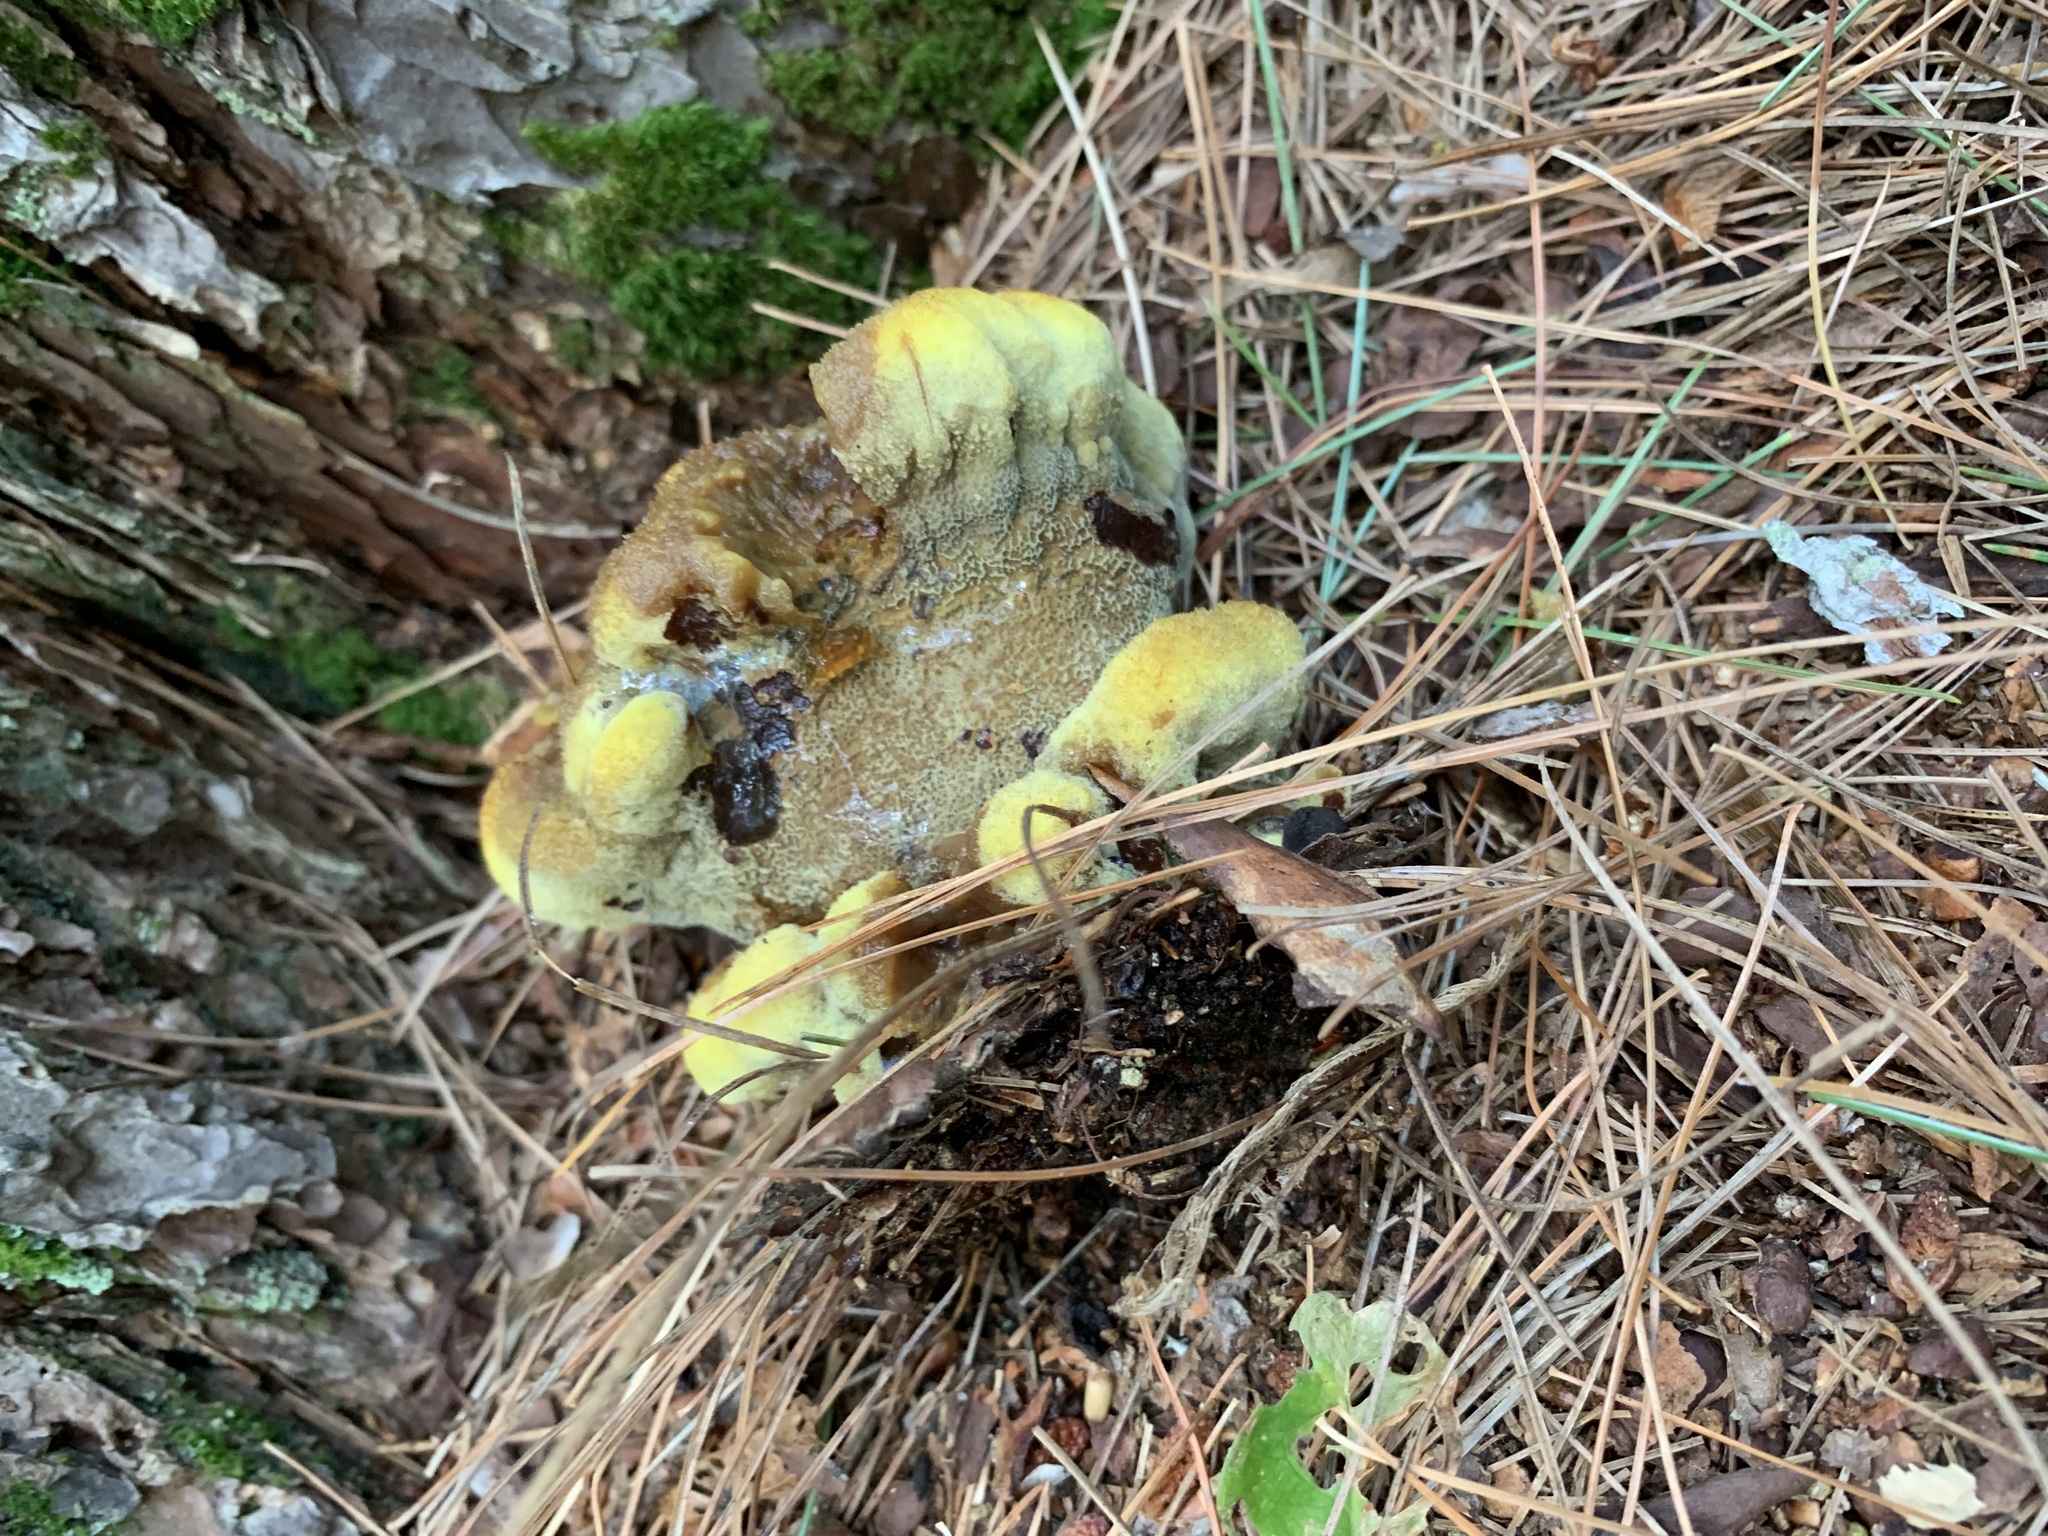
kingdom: Fungi
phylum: Basidiomycota
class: Agaricomycetes
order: Polyporales
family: Laetiporaceae
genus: Phaeolus
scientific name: Phaeolus schweinitzii
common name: Dyer's mazegill
